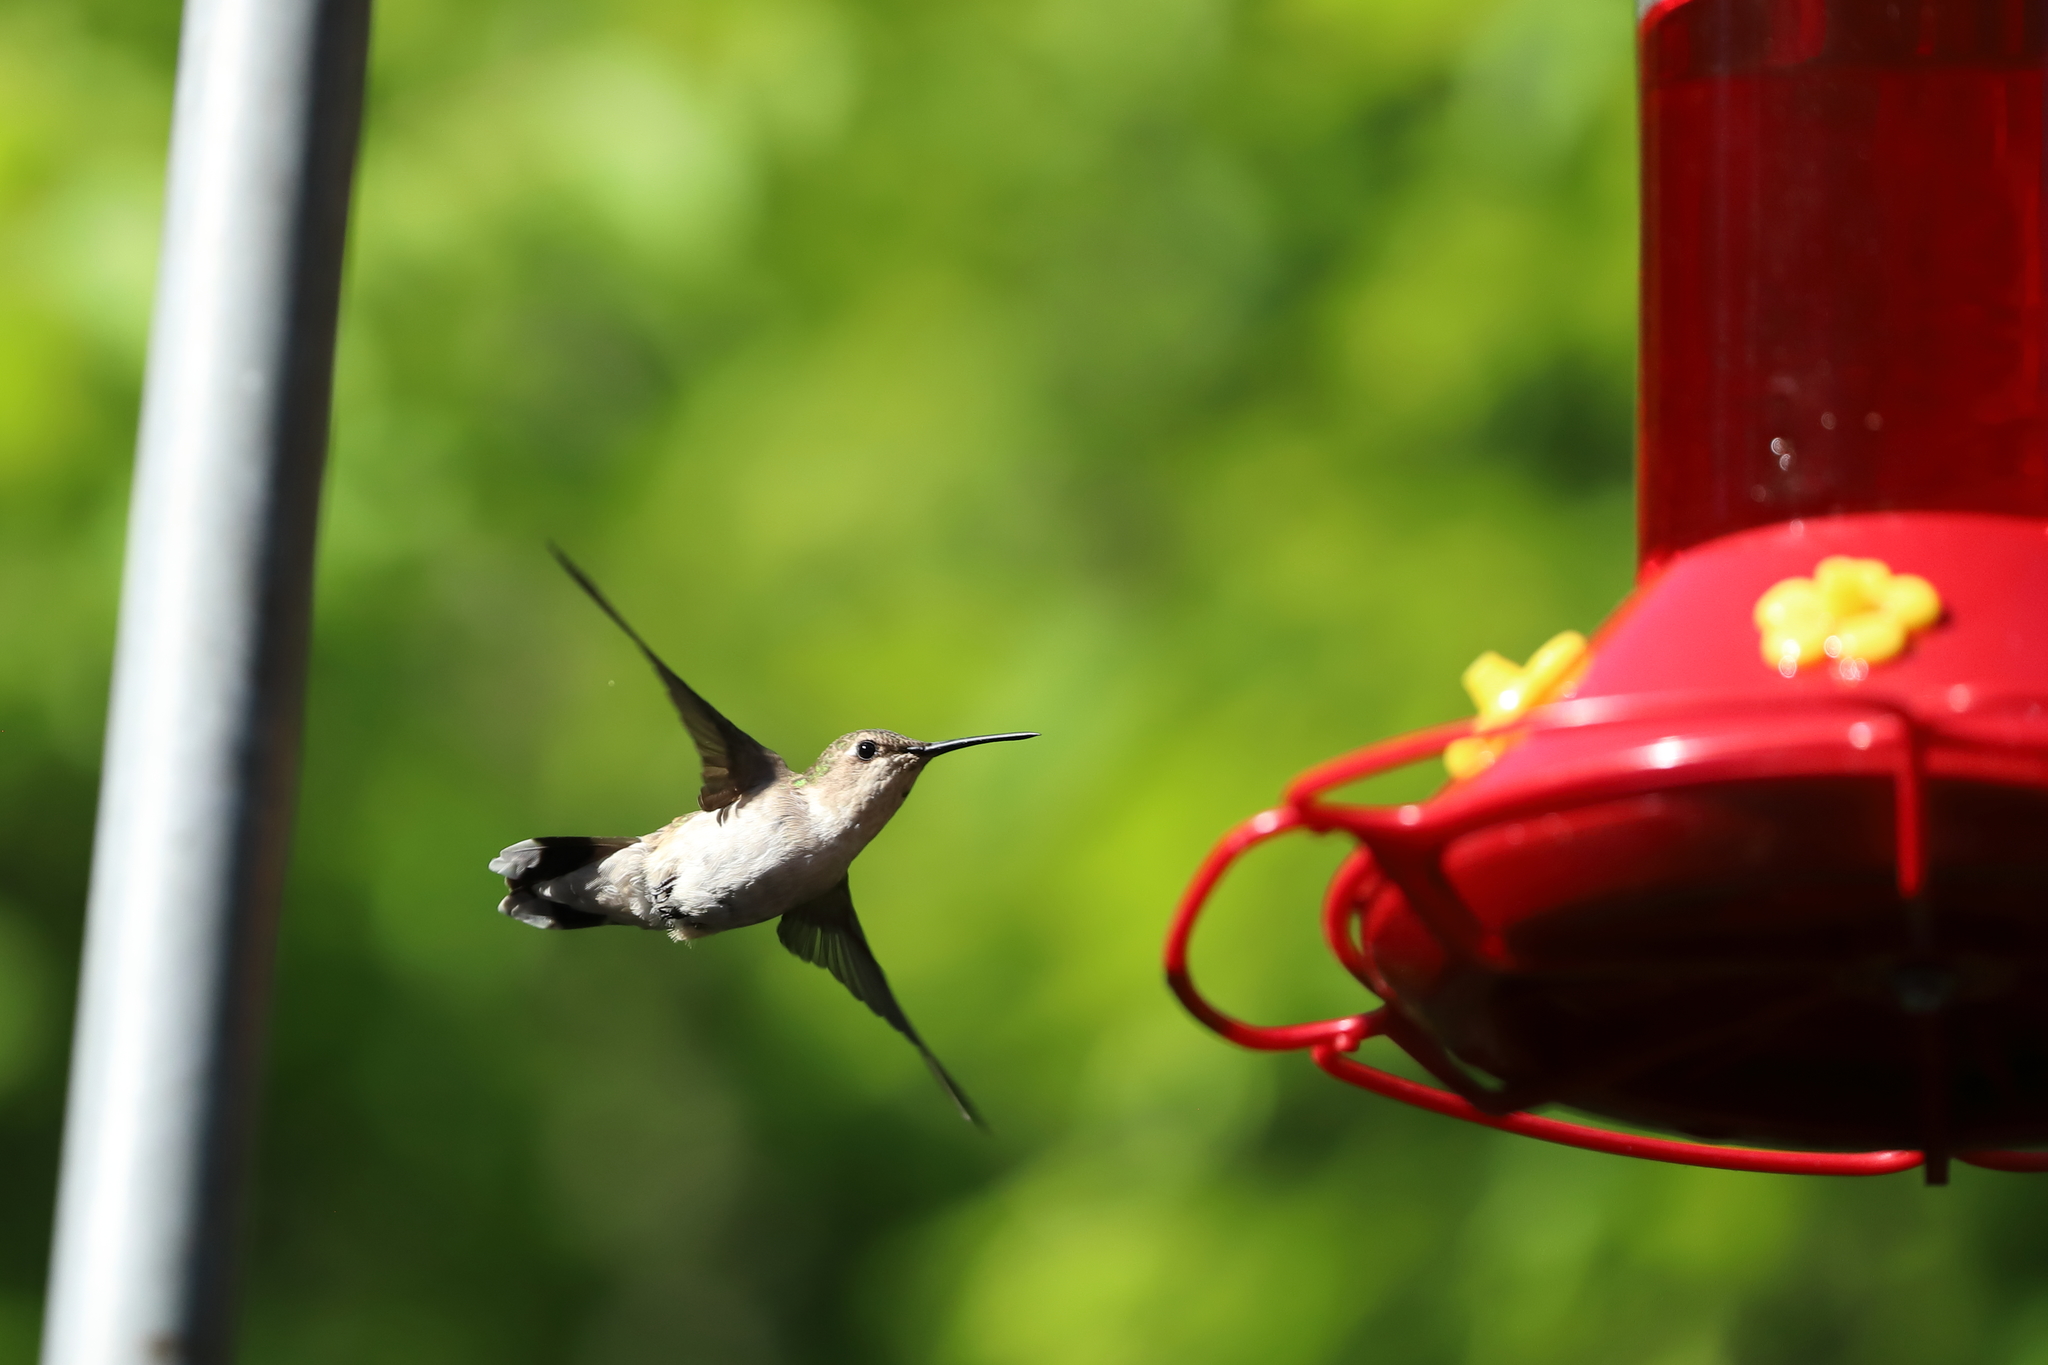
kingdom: Animalia
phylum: Chordata
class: Aves
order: Apodiformes
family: Trochilidae
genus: Archilochus
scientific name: Archilochus colubris
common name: Ruby-throated hummingbird
